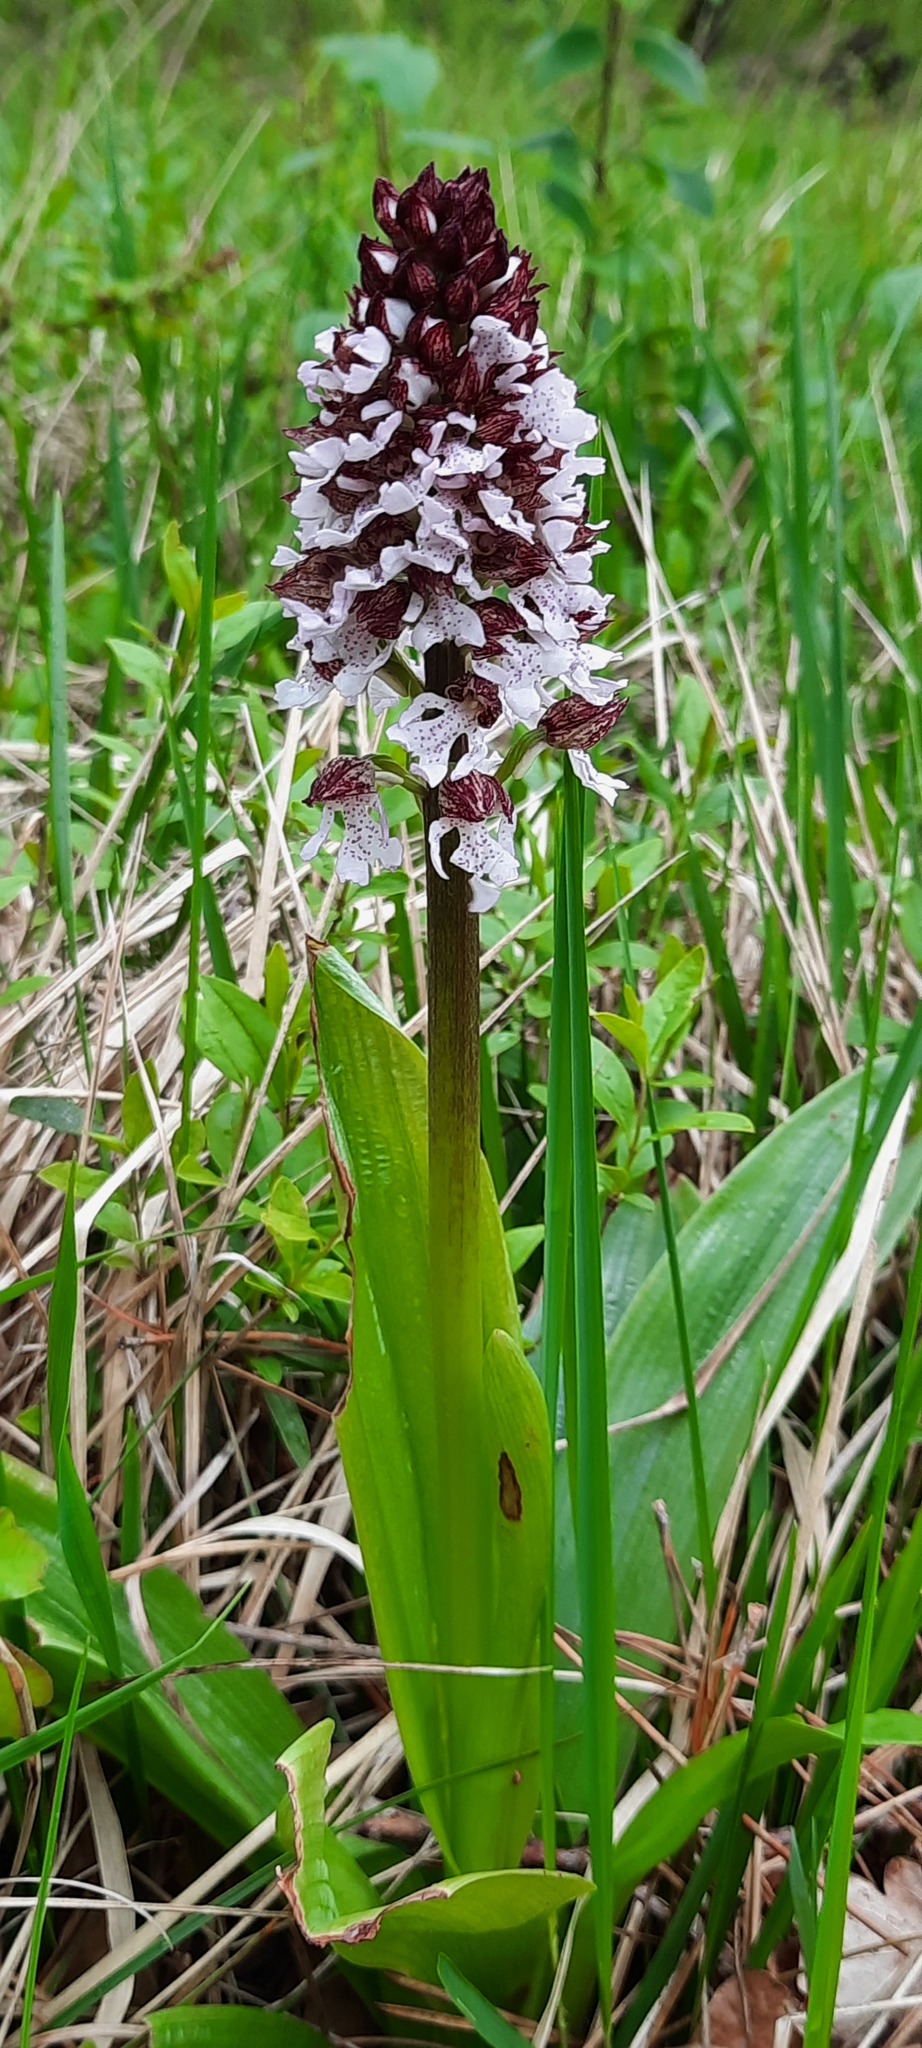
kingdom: Plantae
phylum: Tracheophyta
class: Liliopsida
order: Asparagales
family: Orchidaceae
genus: Orchis
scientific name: Orchis purpurea
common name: Lady orchid
